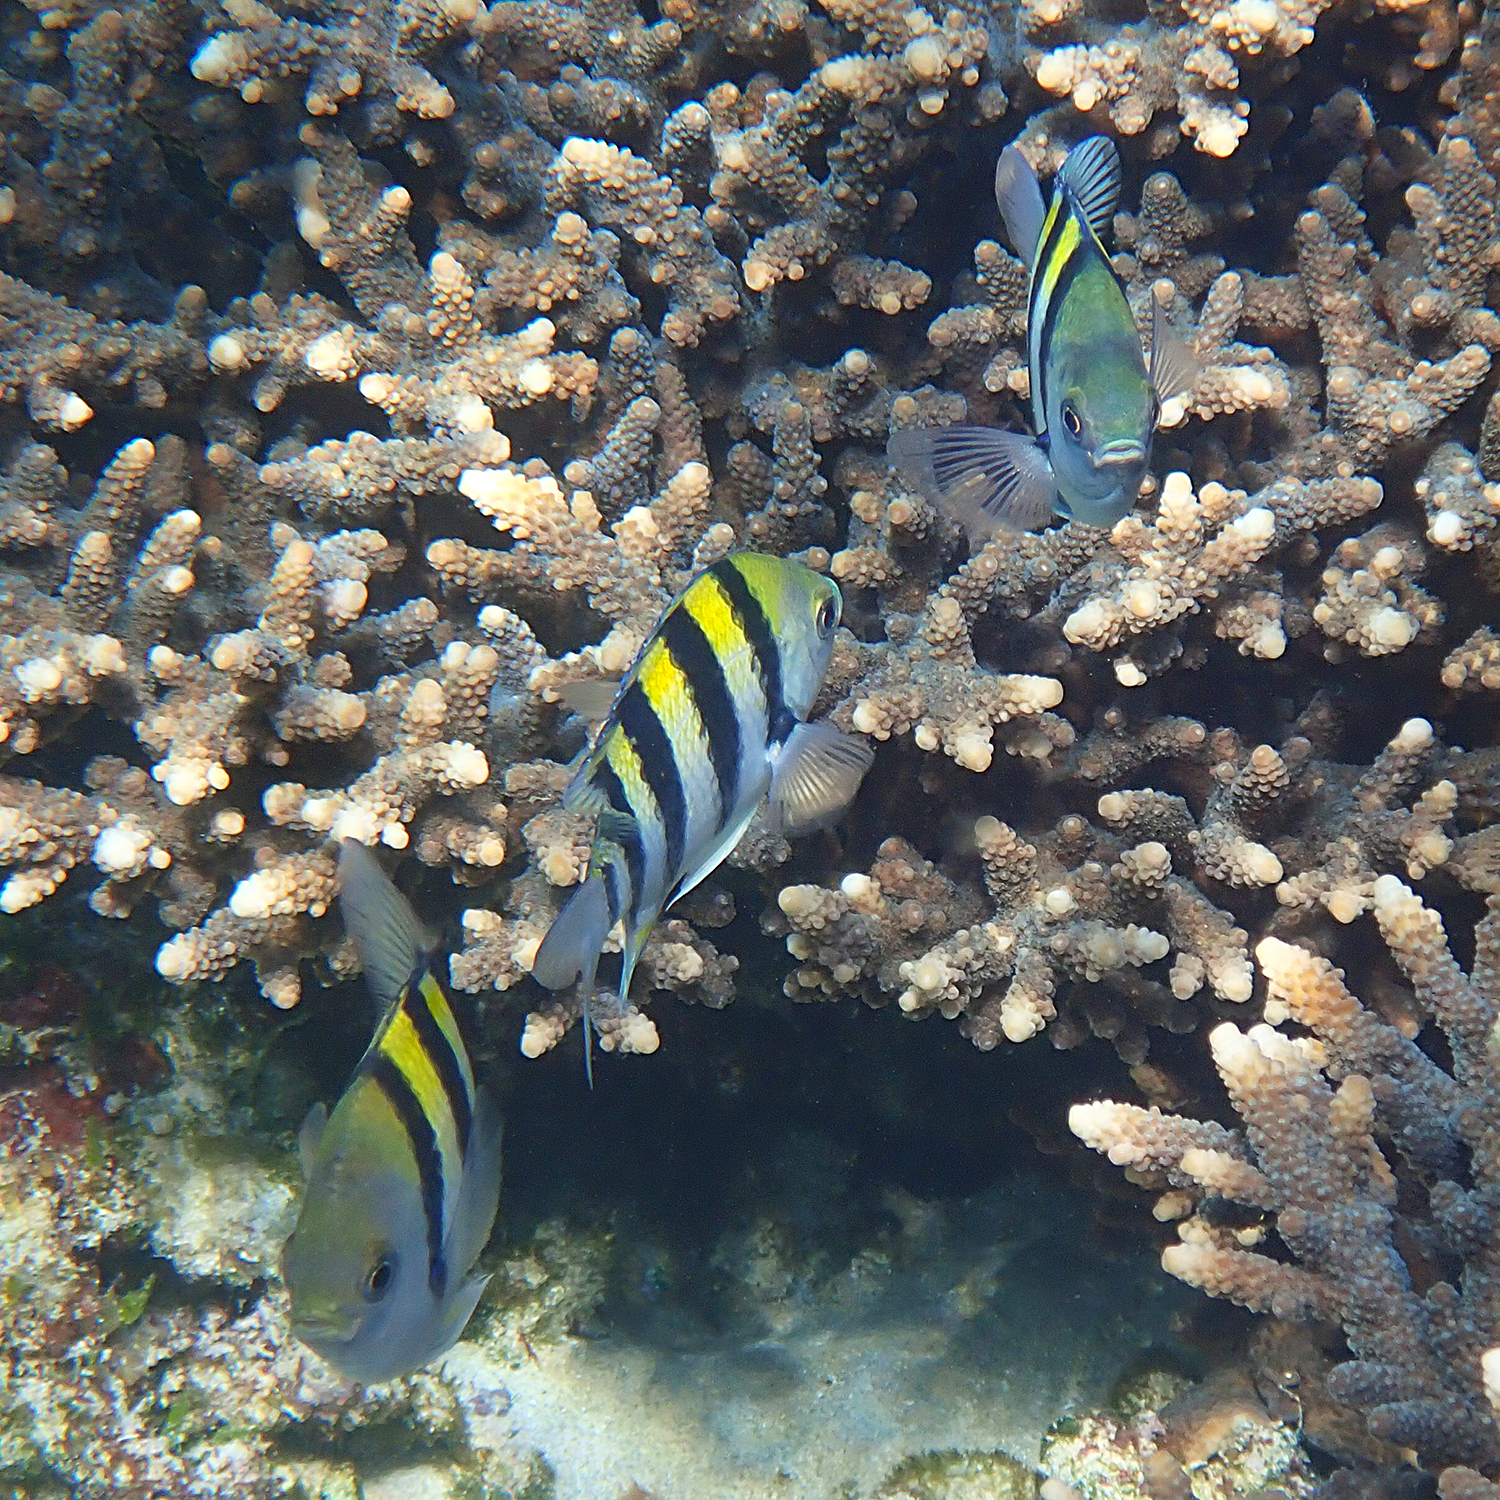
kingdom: Animalia
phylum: Chordata
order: Perciformes
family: Pomacentridae
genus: Abudefduf
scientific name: Abudefduf vaigiensis
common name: Indo-pacific sergeant
